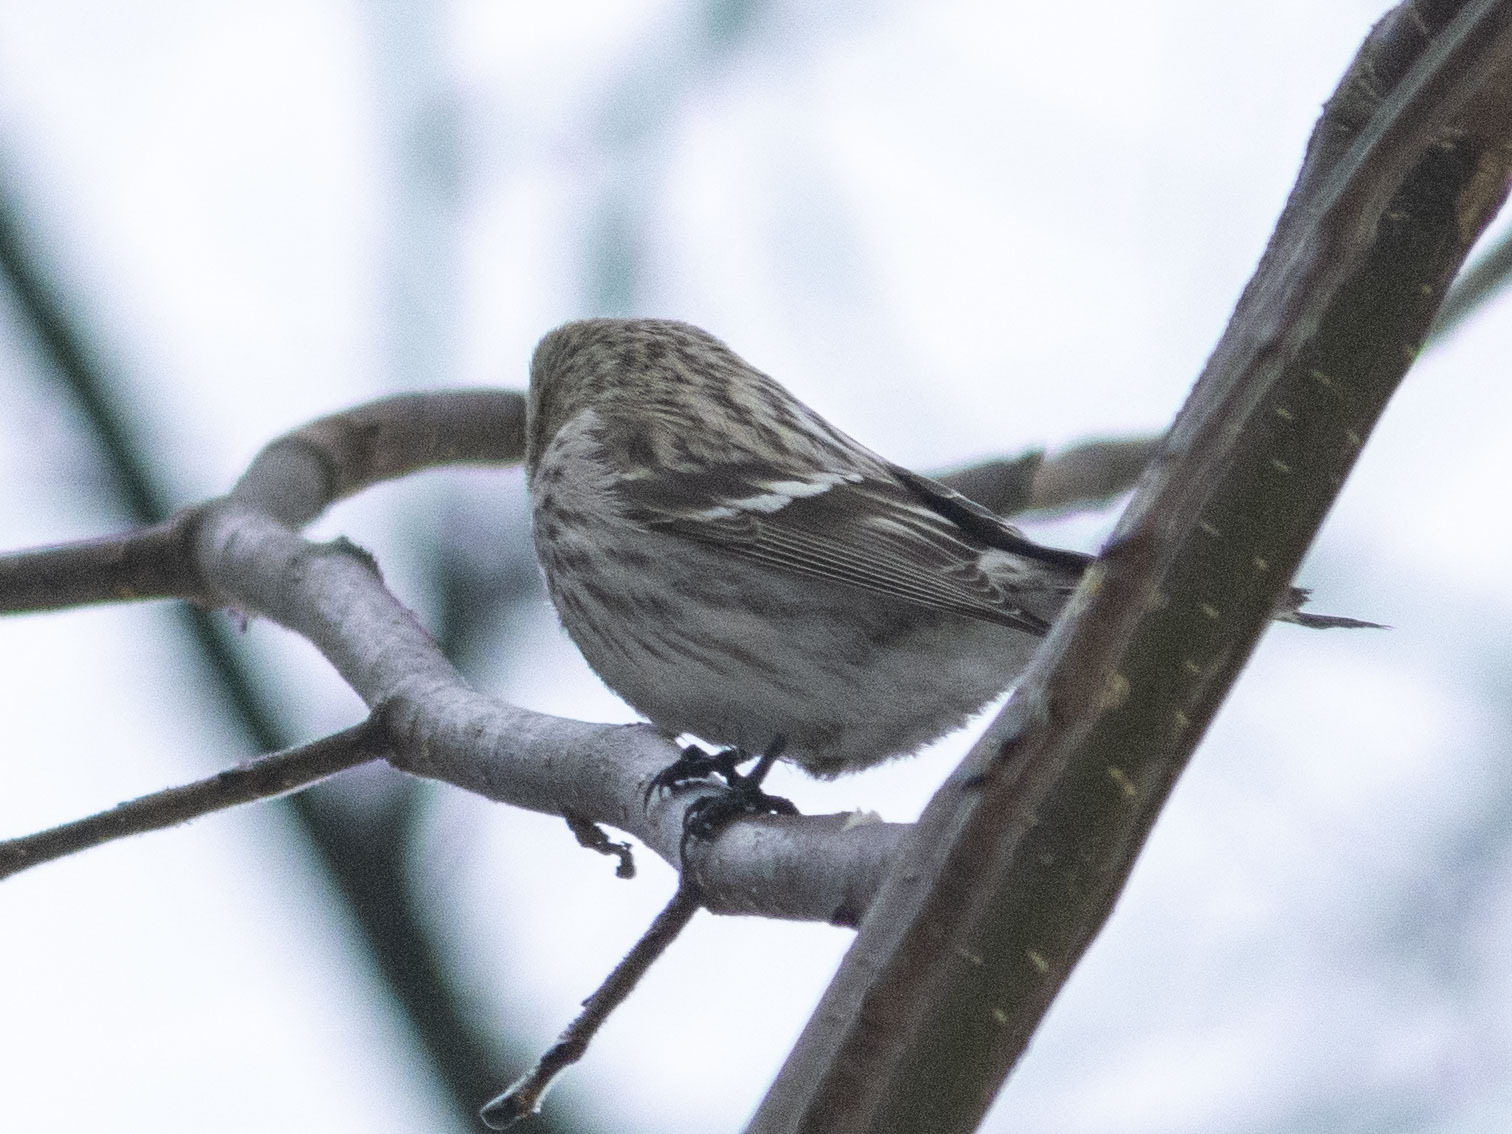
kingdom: Animalia
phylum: Chordata
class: Aves
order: Passeriformes
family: Fringillidae
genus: Acanthis
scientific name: Acanthis flammea
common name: Common redpoll
